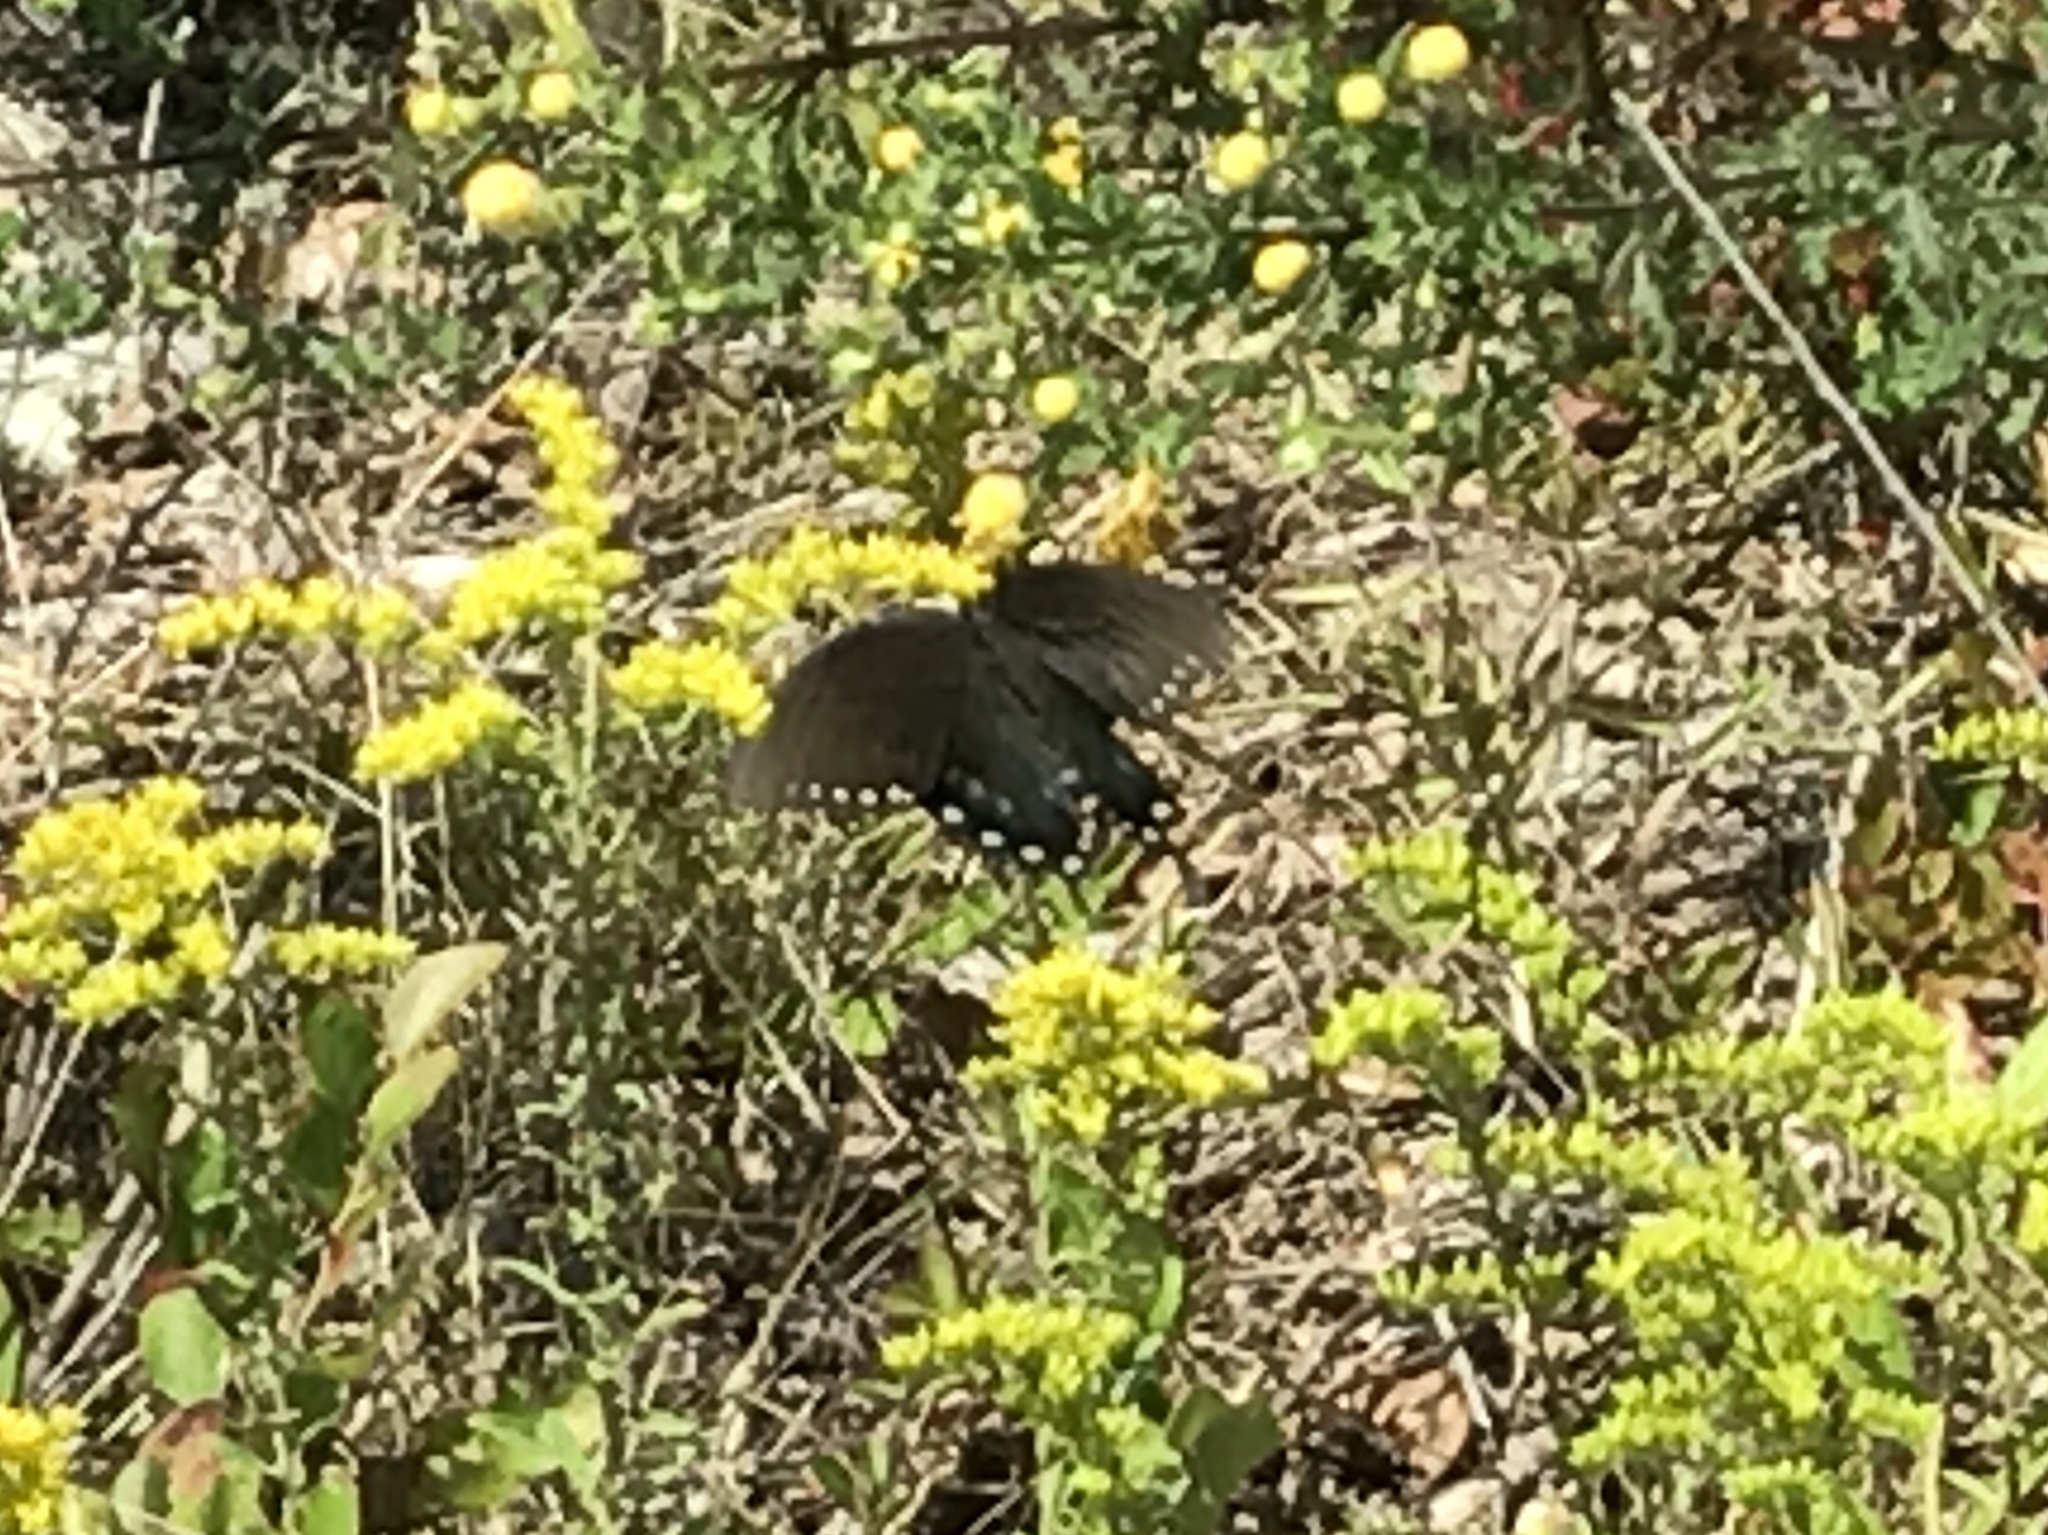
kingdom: Animalia
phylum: Arthropoda
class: Insecta
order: Lepidoptera
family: Papilionidae
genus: Papilio
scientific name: Papilio troilus
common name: Spicebush swallowtail
